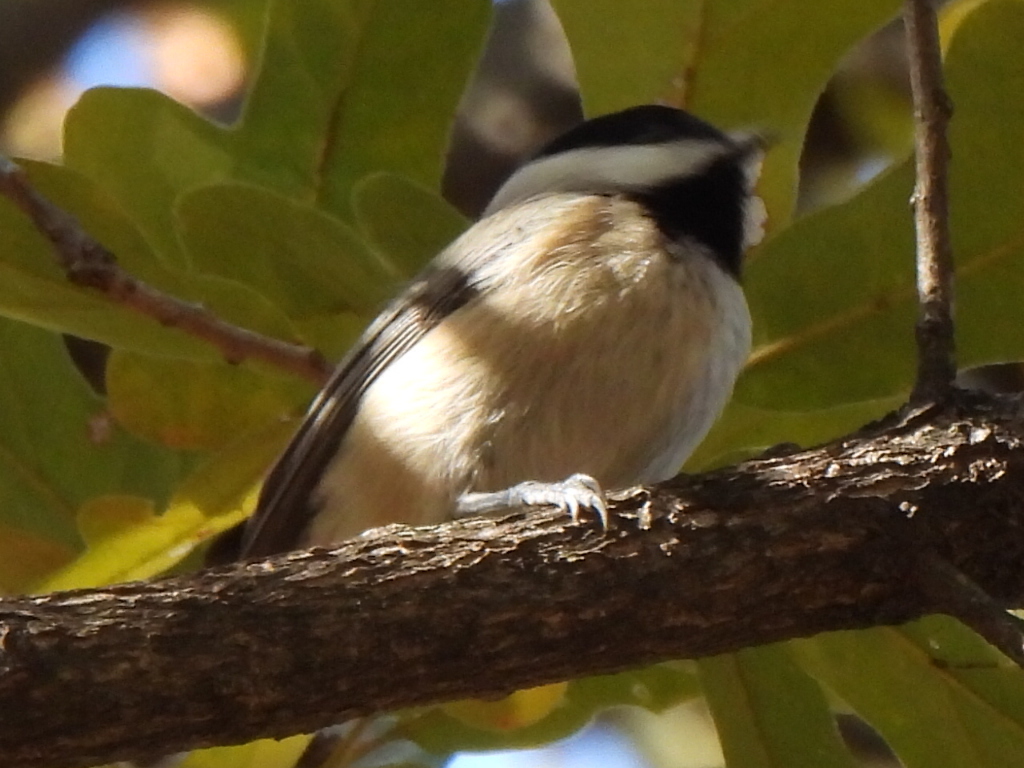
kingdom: Animalia
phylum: Chordata
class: Aves
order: Passeriformes
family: Paridae
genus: Poecile
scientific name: Poecile carolinensis
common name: Carolina chickadee
